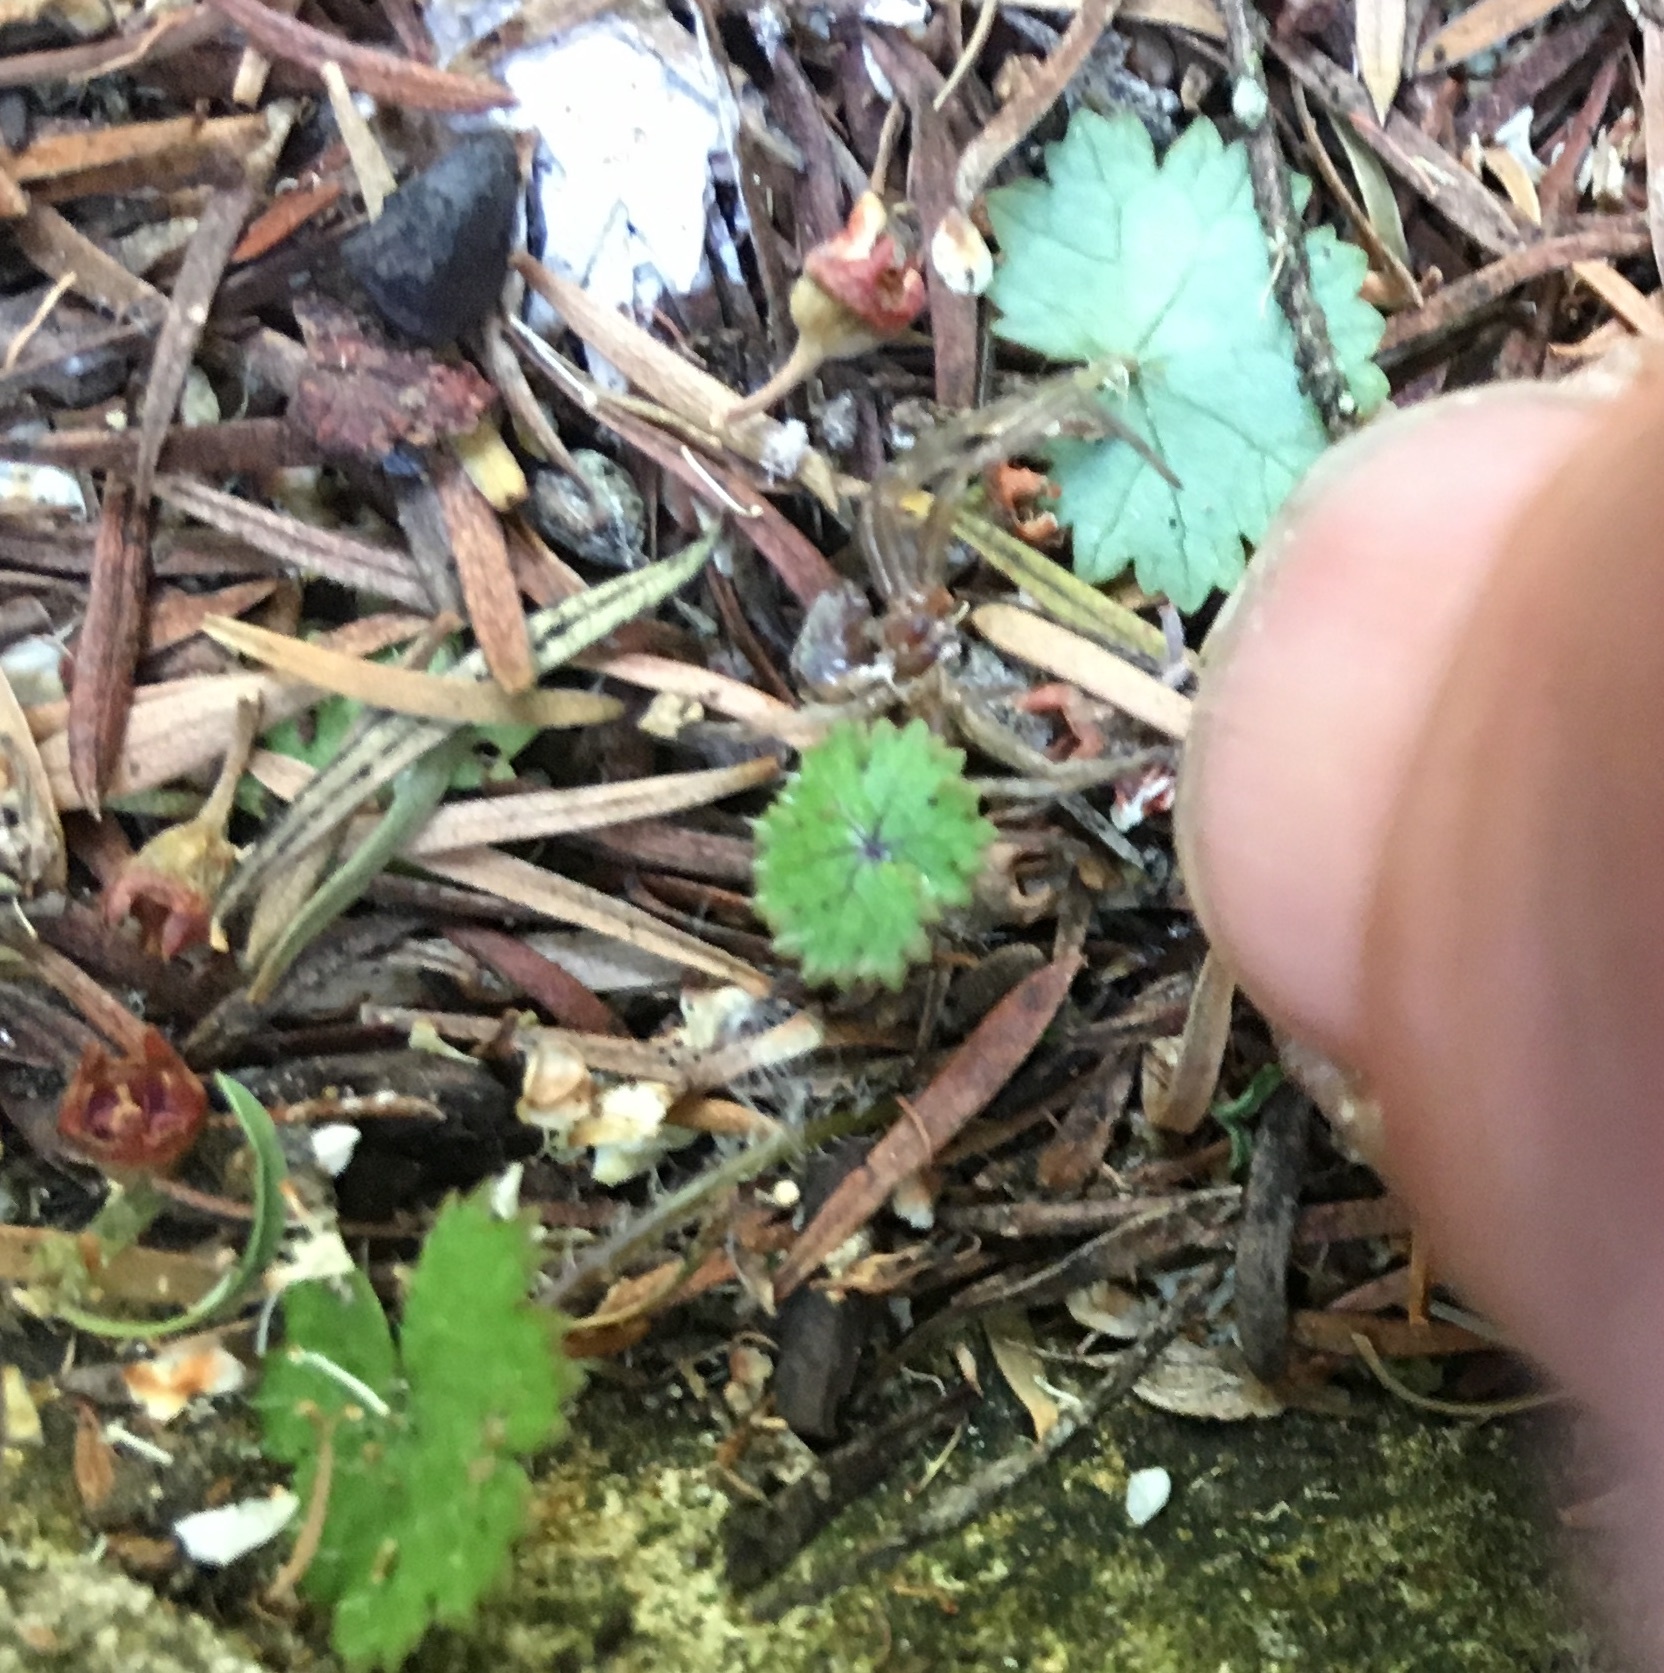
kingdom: Plantae
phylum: Tracheophyta
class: Magnoliopsida
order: Apiales
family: Araliaceae
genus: Hydrocotyle
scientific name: Hydrocotyle moschata
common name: Hairy pennywort
